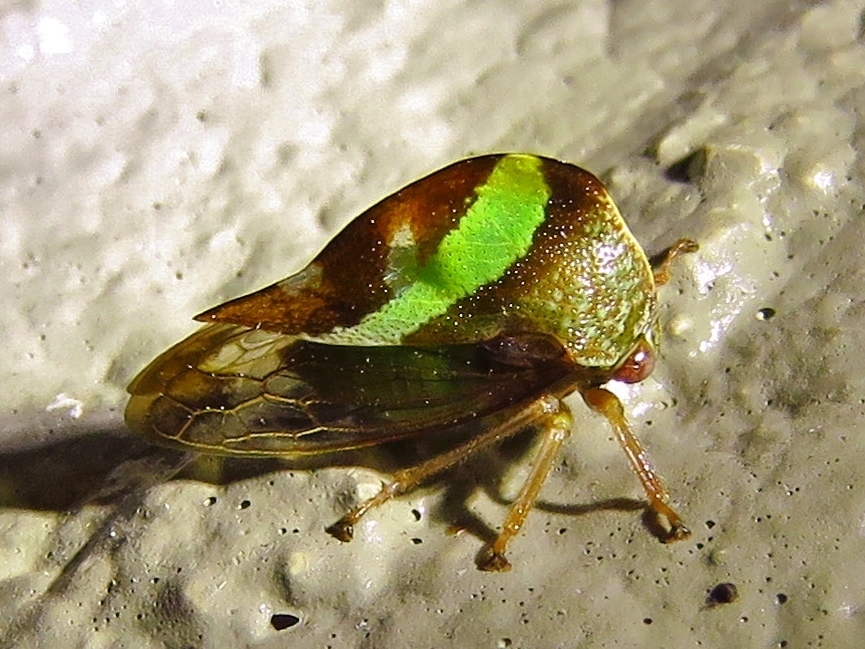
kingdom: Animalia
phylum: Arthropoda
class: Insecta
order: Hemiptera
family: Membracidae
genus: Smilia
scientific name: Smilia fasciata
